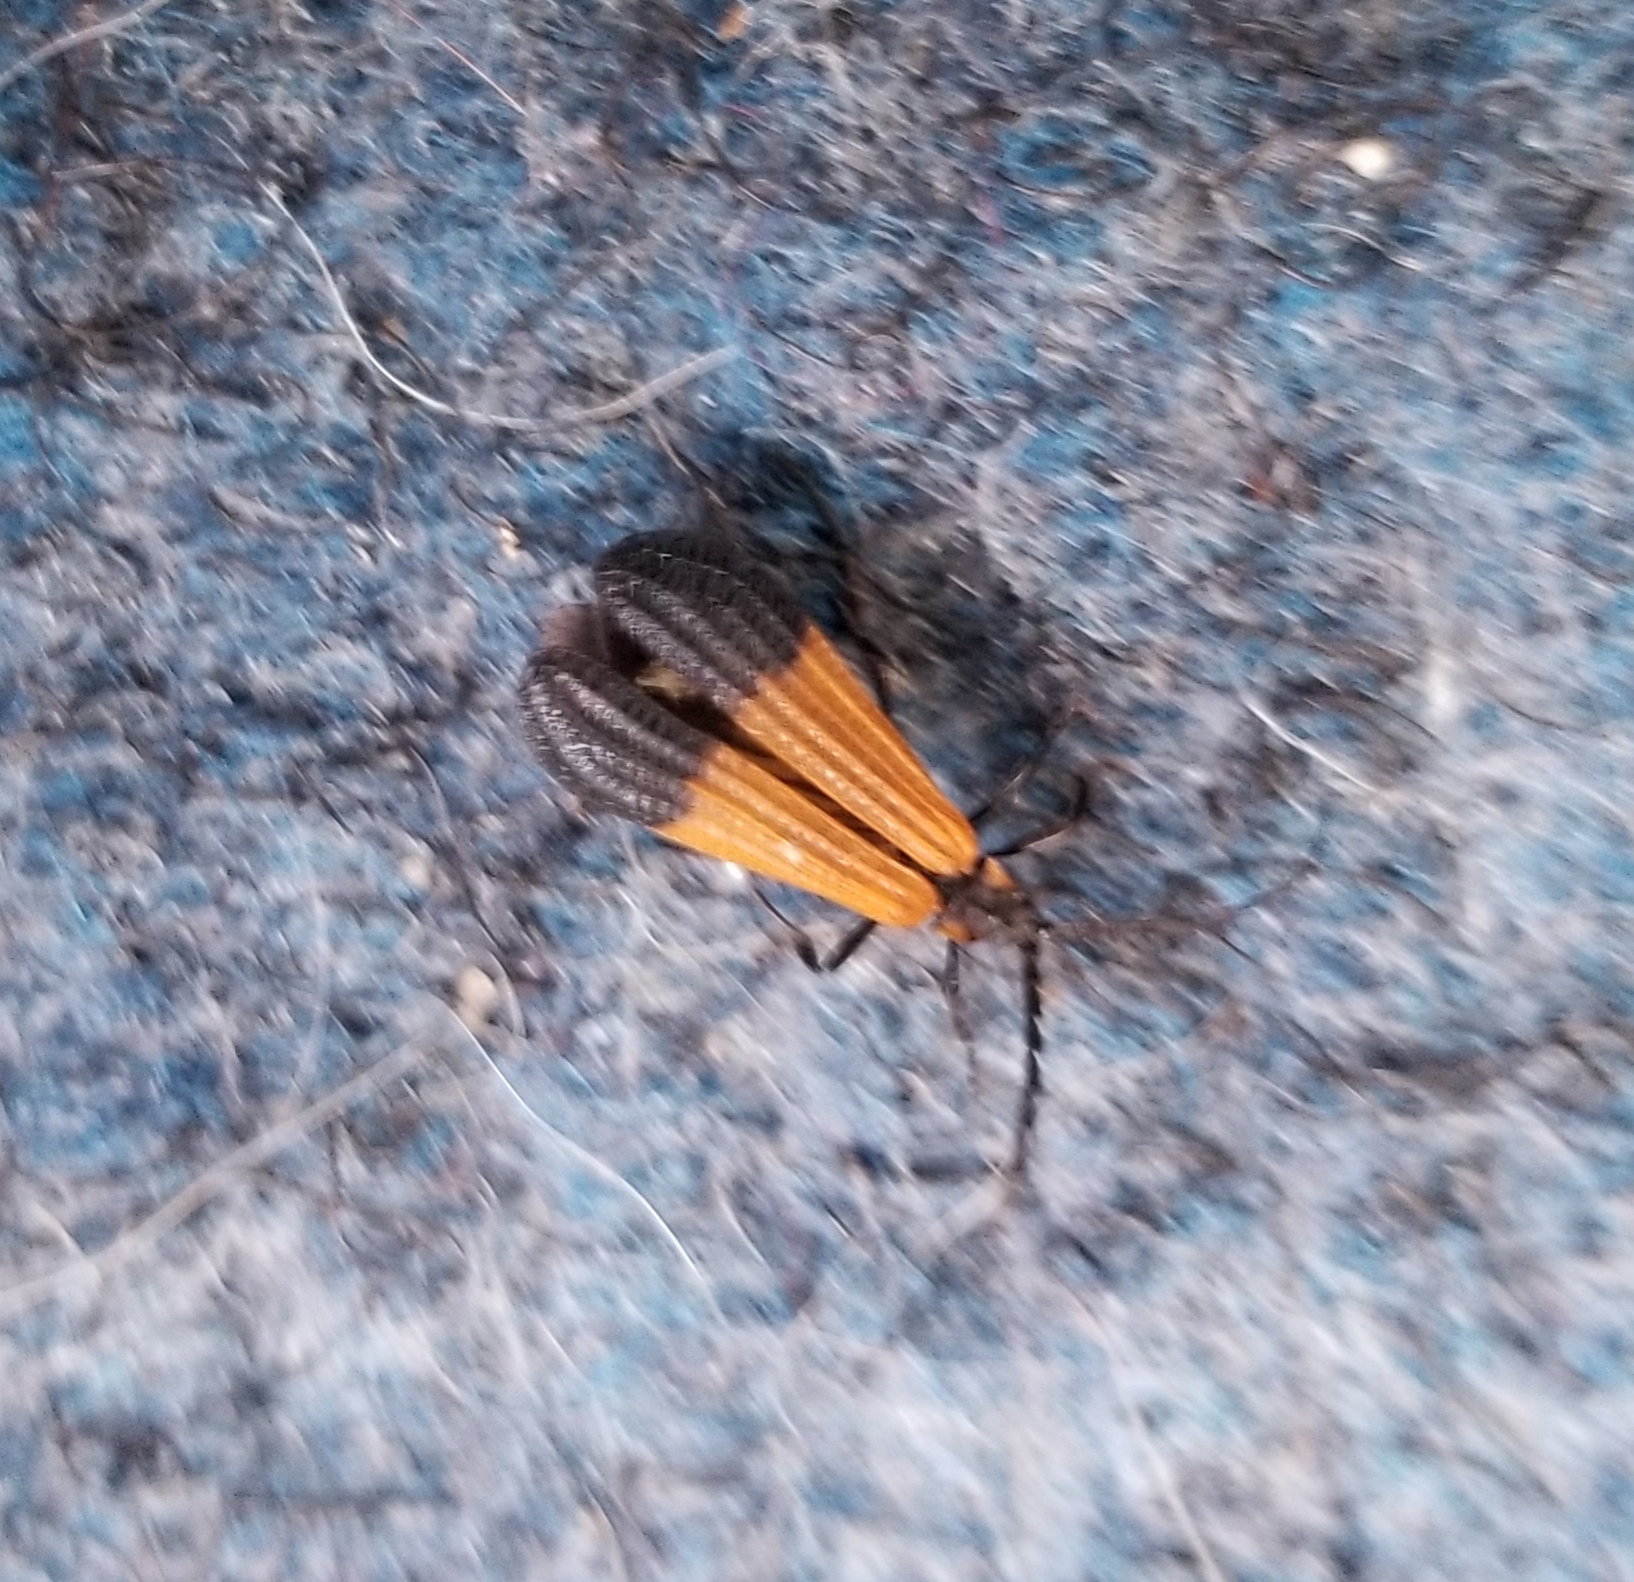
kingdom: Animalia
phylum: Arthropoda
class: Insecta
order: Coleoptera
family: Lycidae
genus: Calopteron
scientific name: Calopteron terminale
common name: End band net-winged beetle
